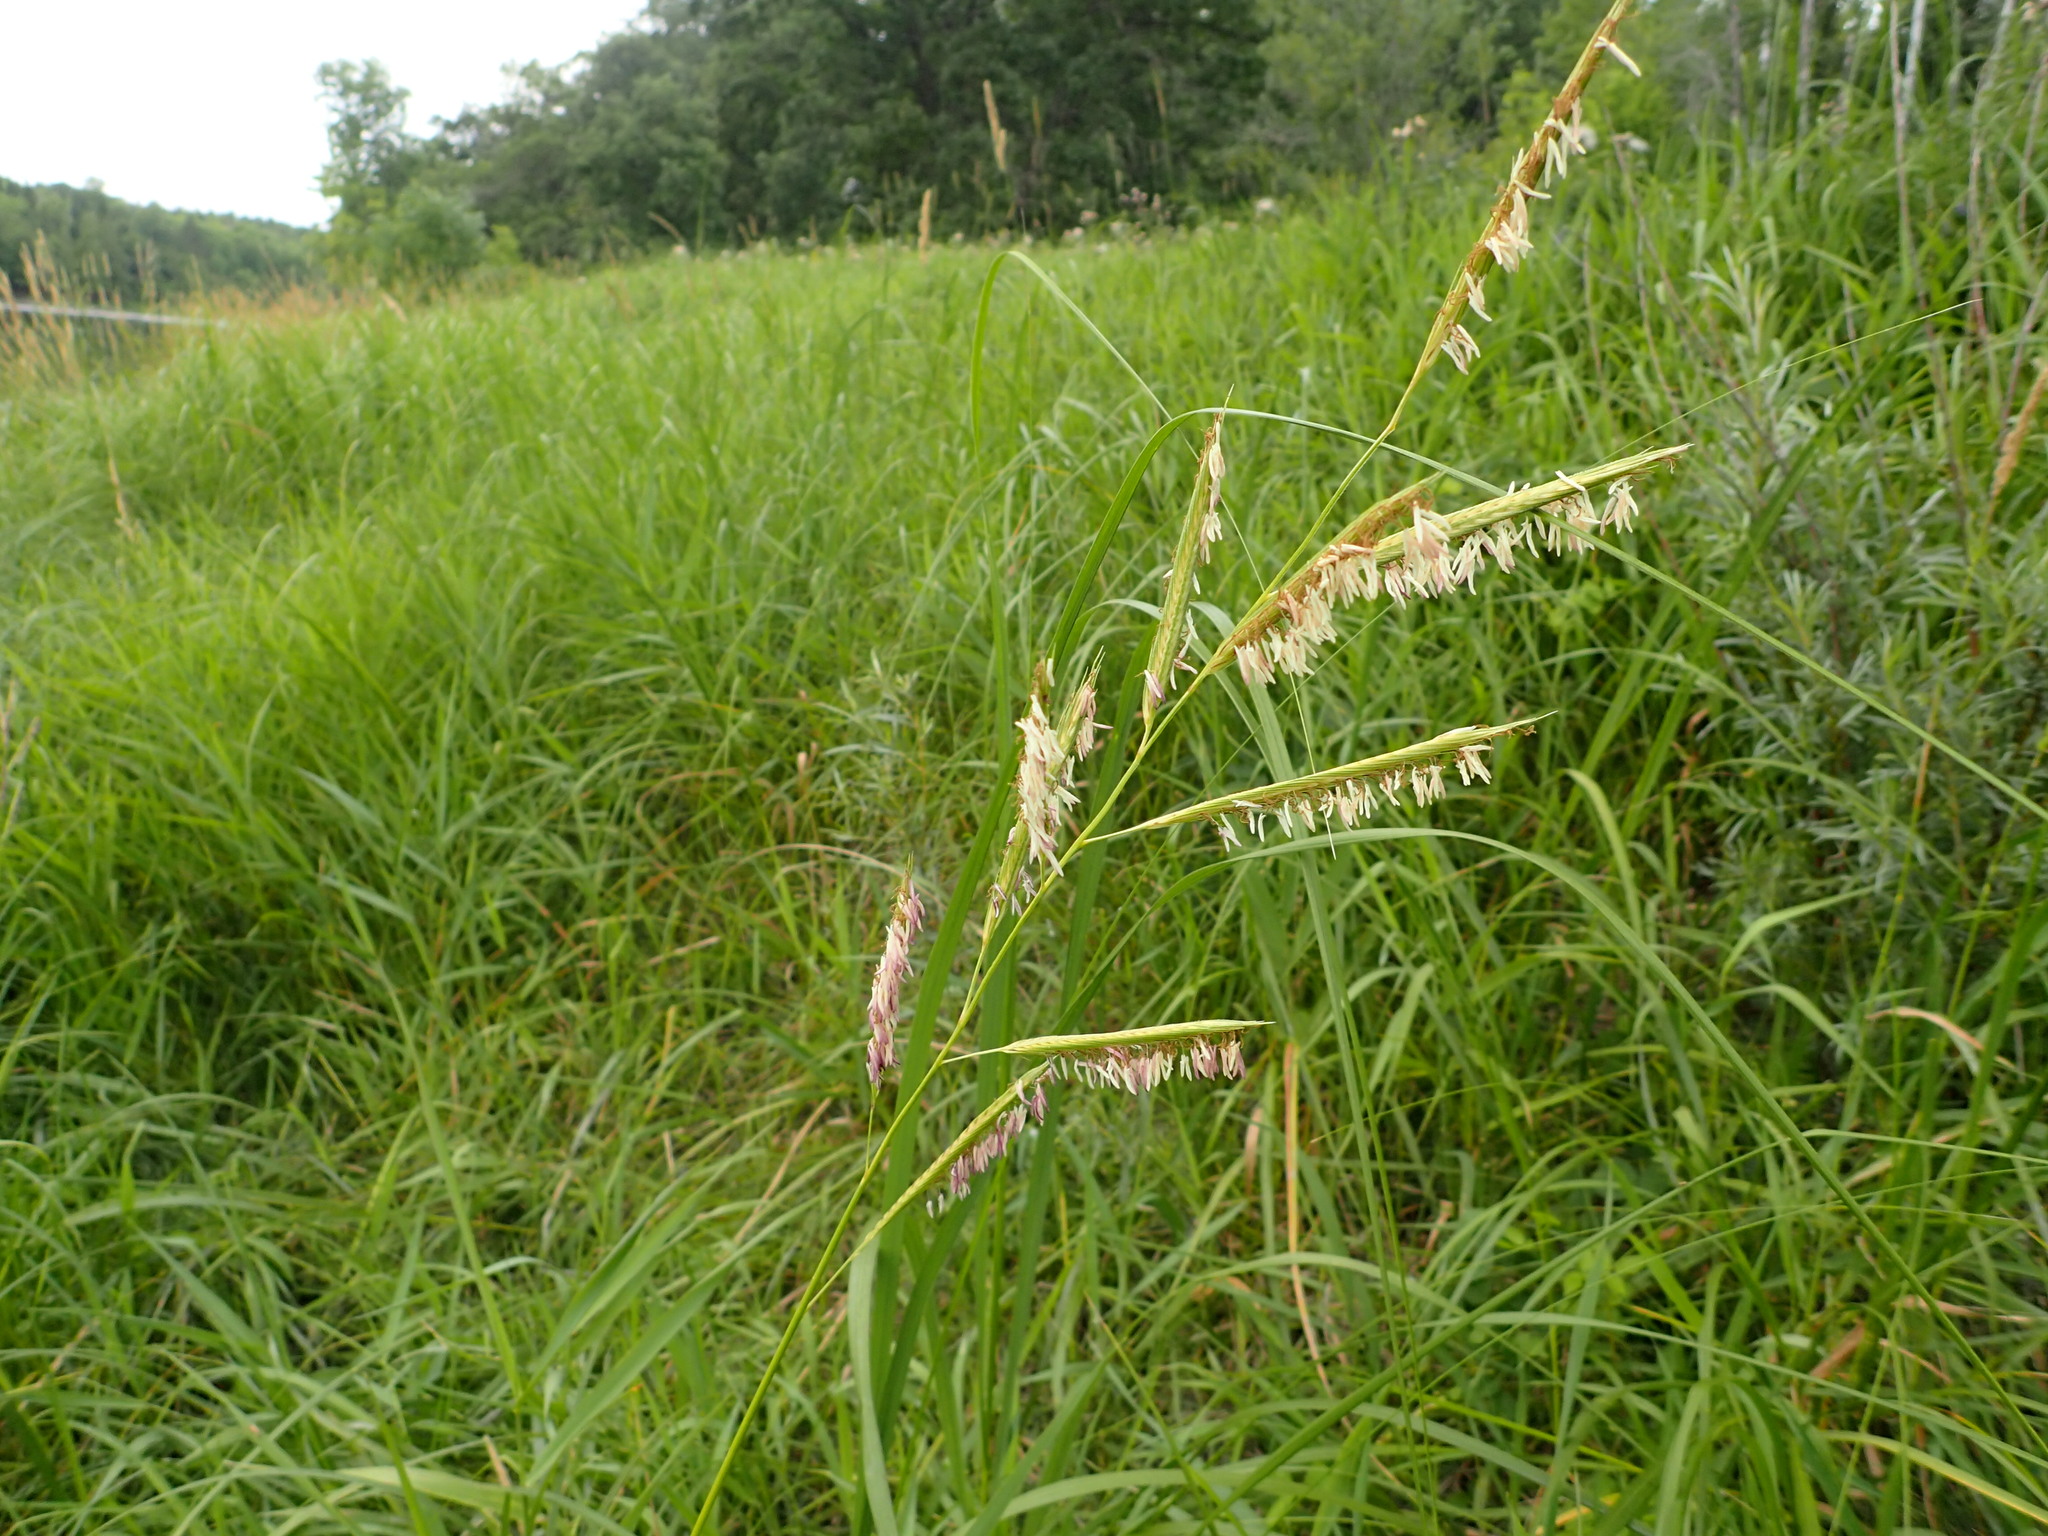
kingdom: Plantae
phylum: Tracheophyta
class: Liliopsida
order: Poales
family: Poaceae
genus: Sporobolus
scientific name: Sporobolus michauxianus
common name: Freshwater cordgrass
